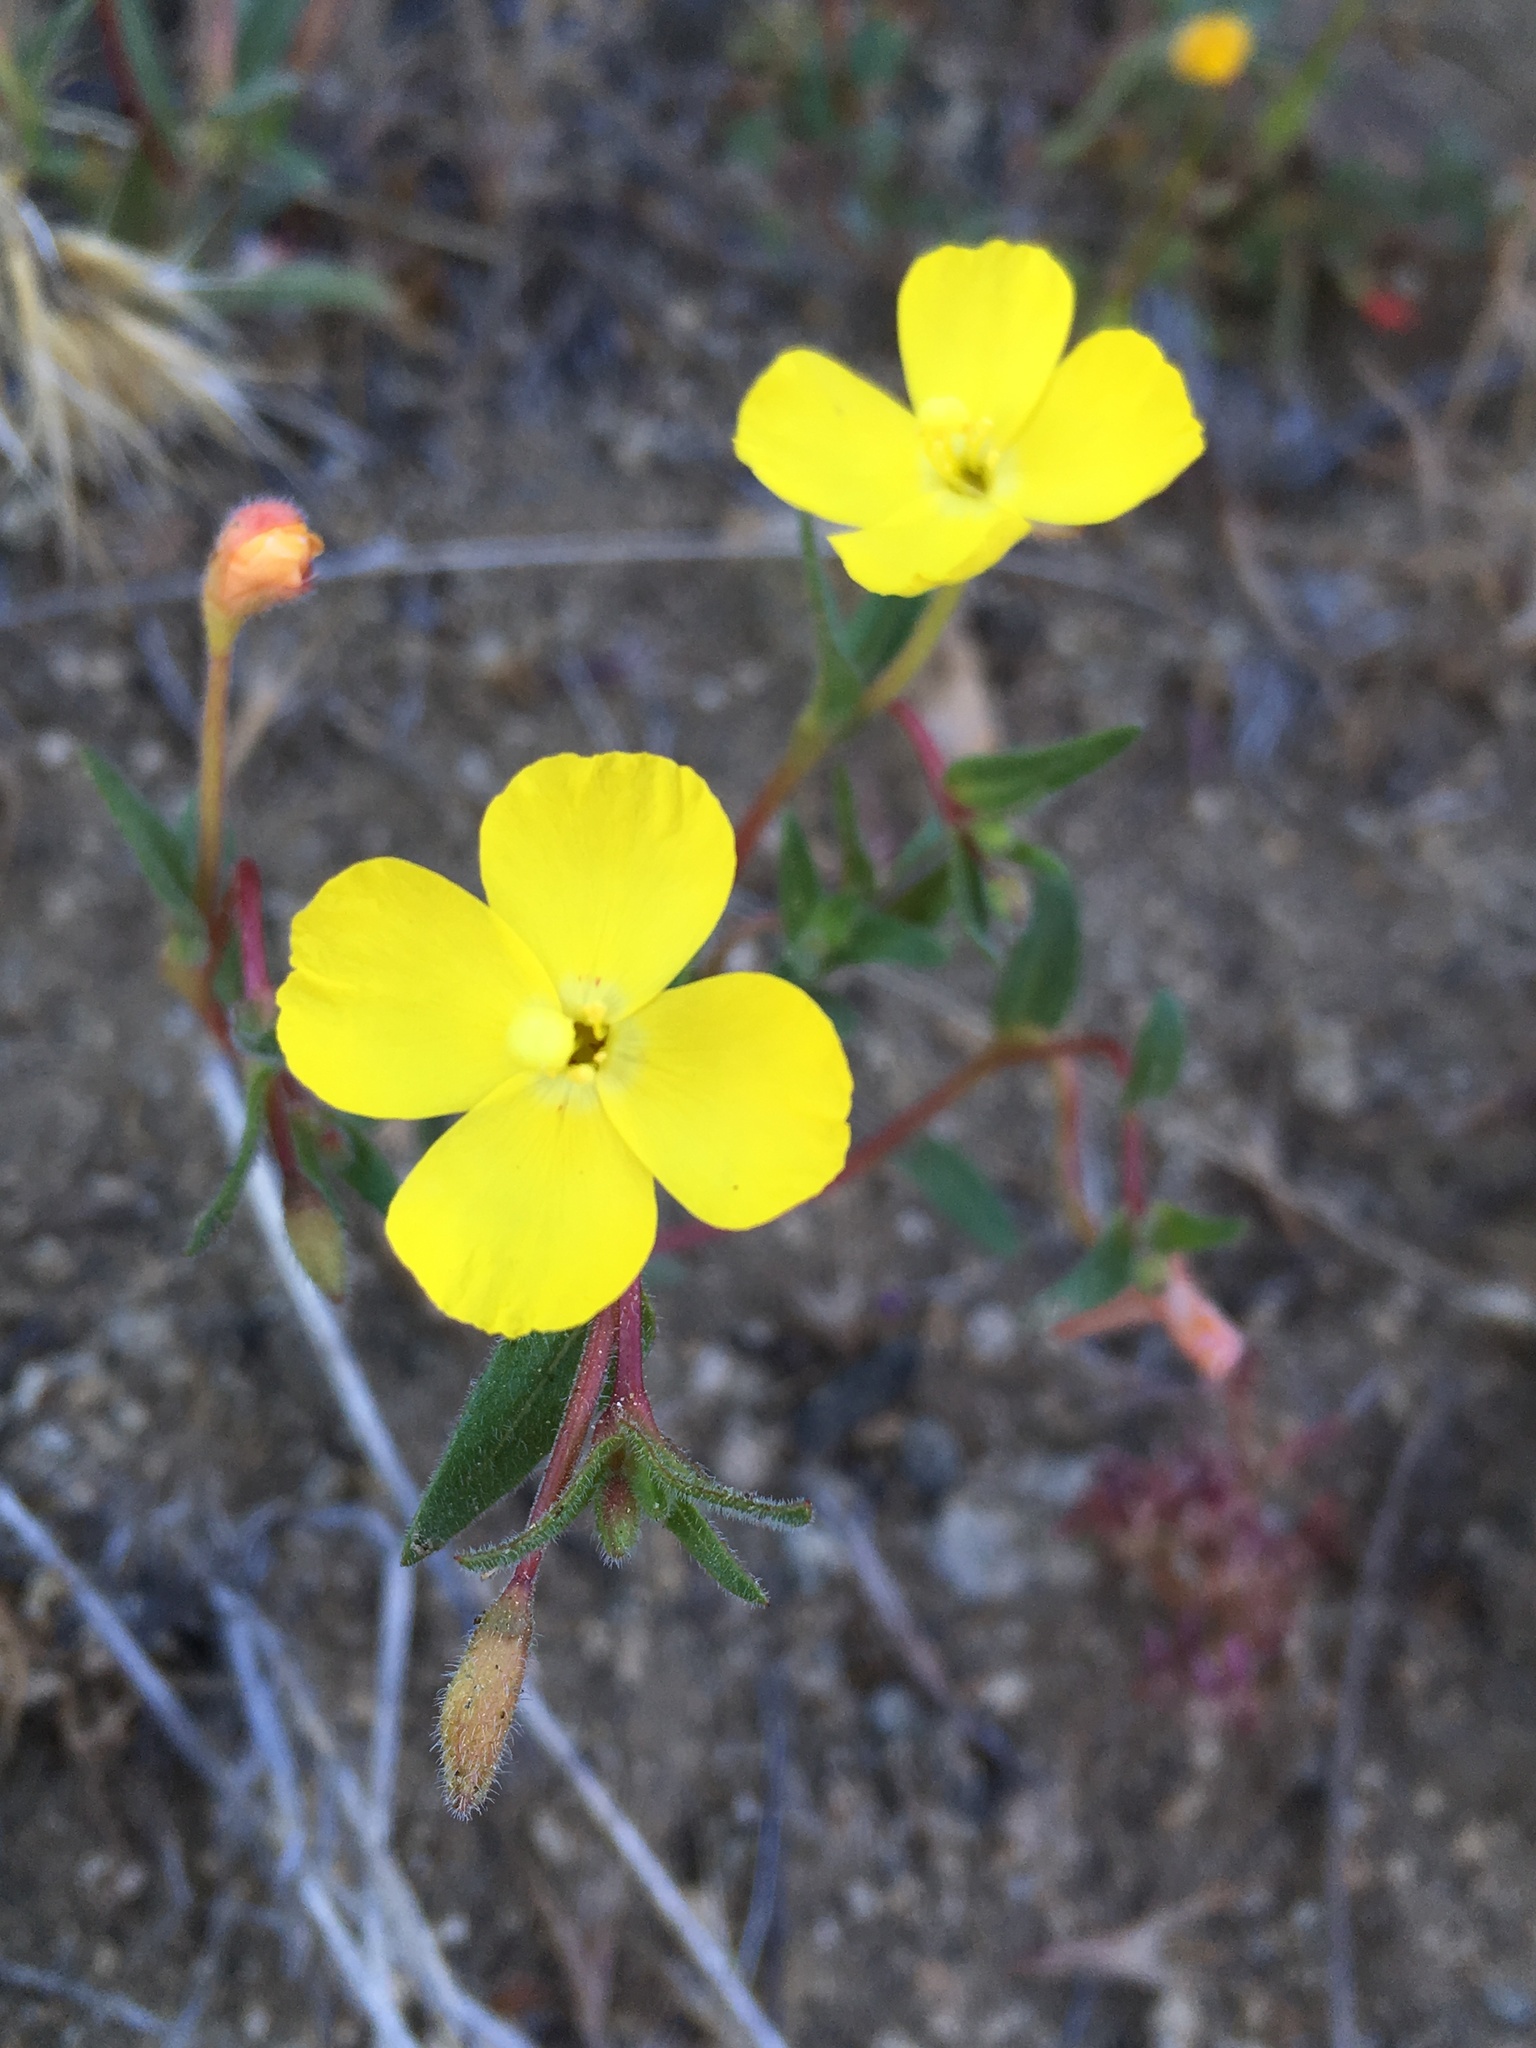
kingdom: Plantae
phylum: Tracheophyta
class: Magnoliopsida
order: Myrtales
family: Onagraceae
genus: Camissoniopsis
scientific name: Camissoniopsis pallida
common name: Paleyellow suncup
